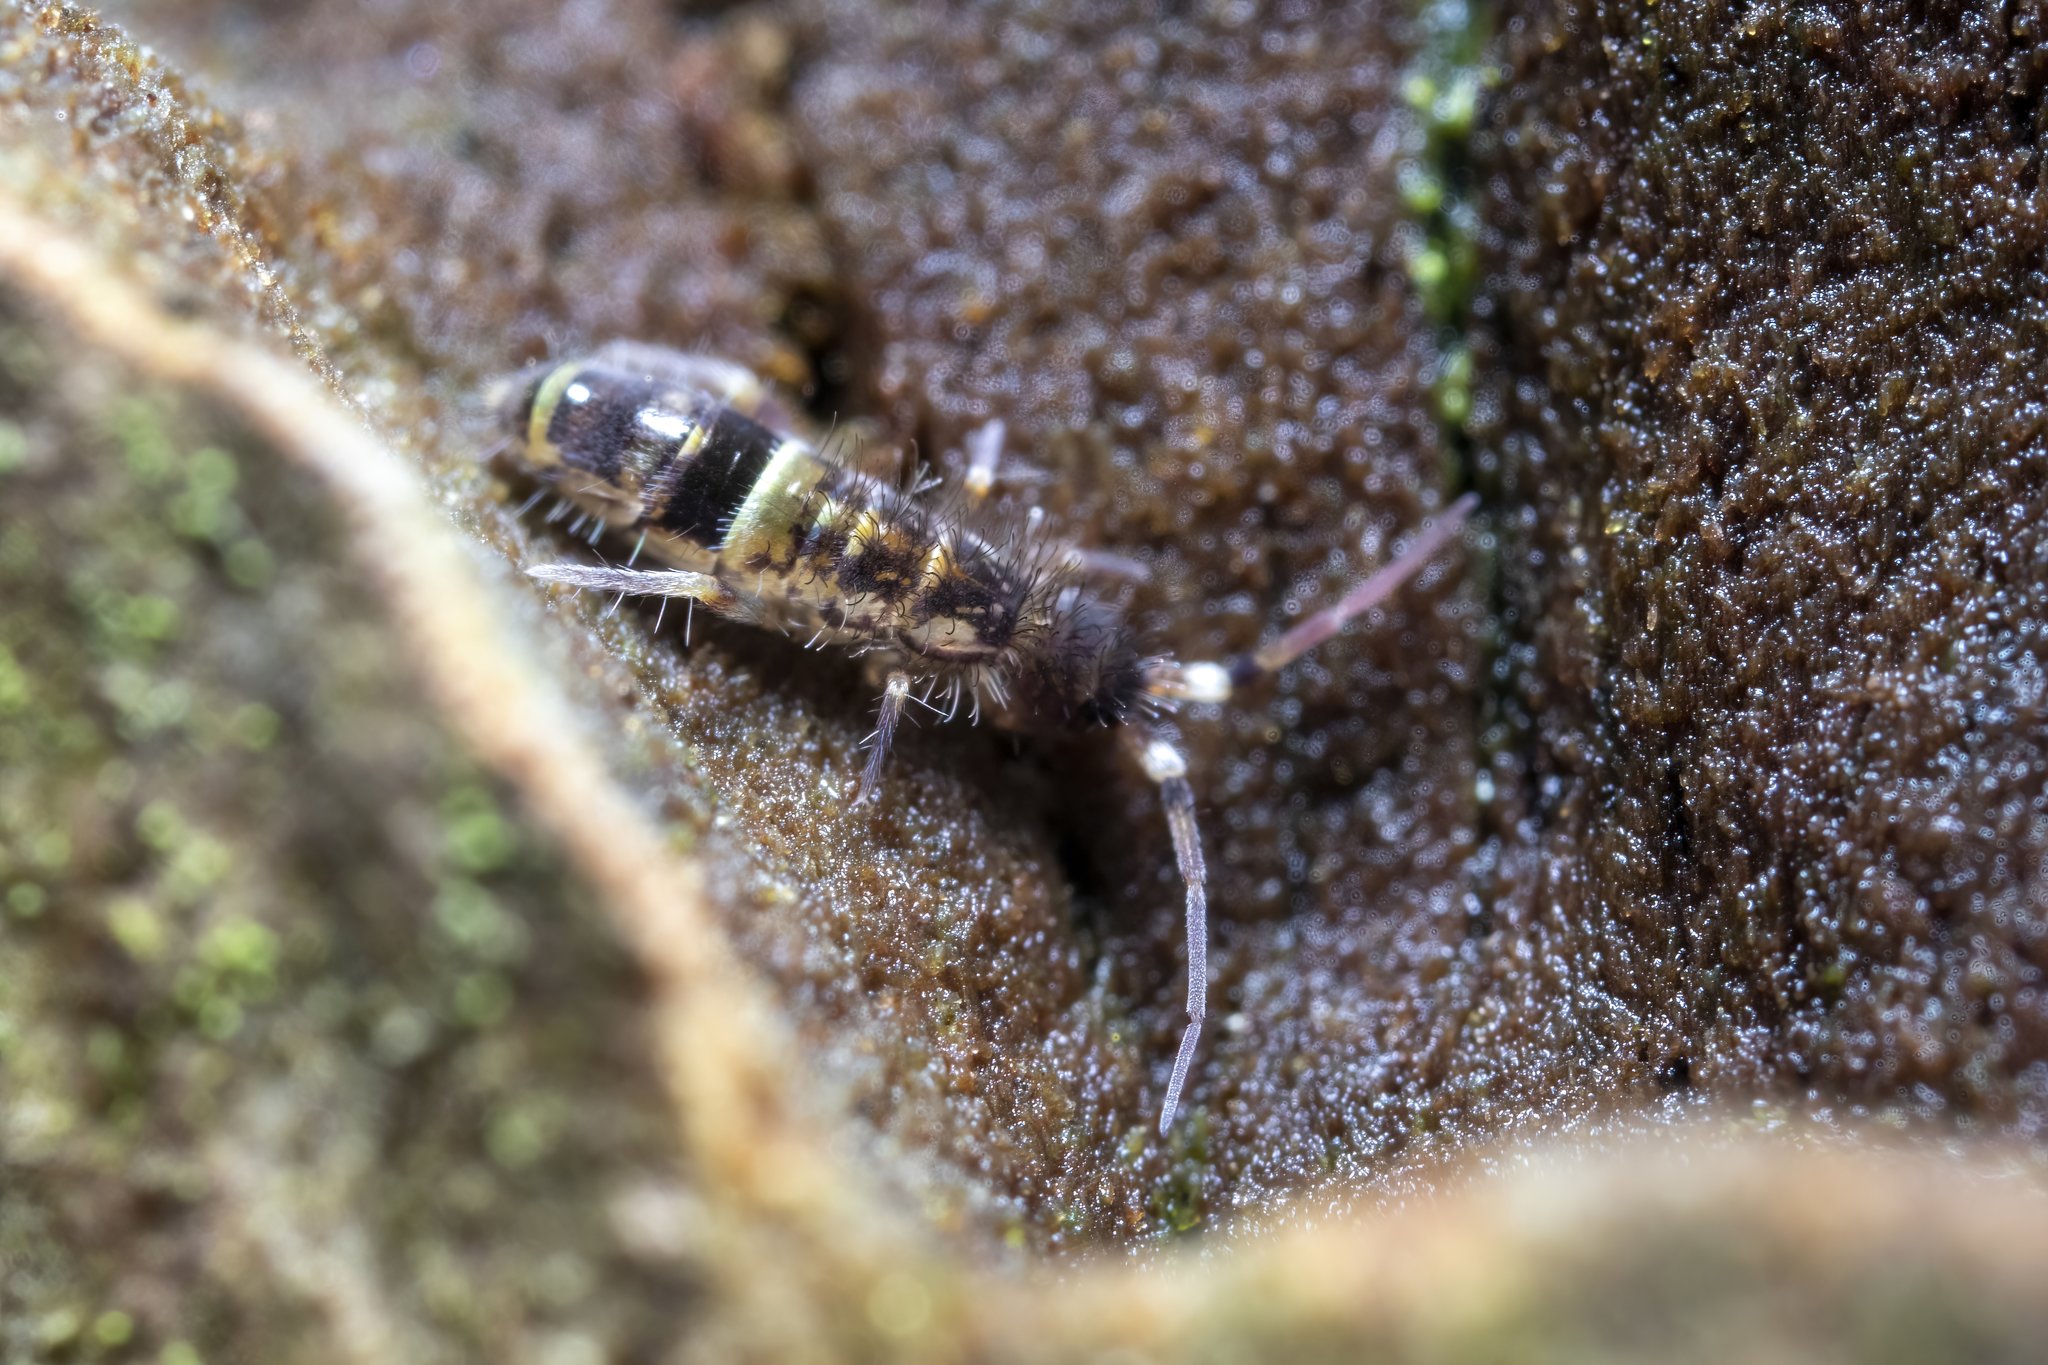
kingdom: Animalia
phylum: Arthropoda
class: Collembola
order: Entomobryomorpha
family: Orchesellidae
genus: Orchesella
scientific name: Orchesella cincta
